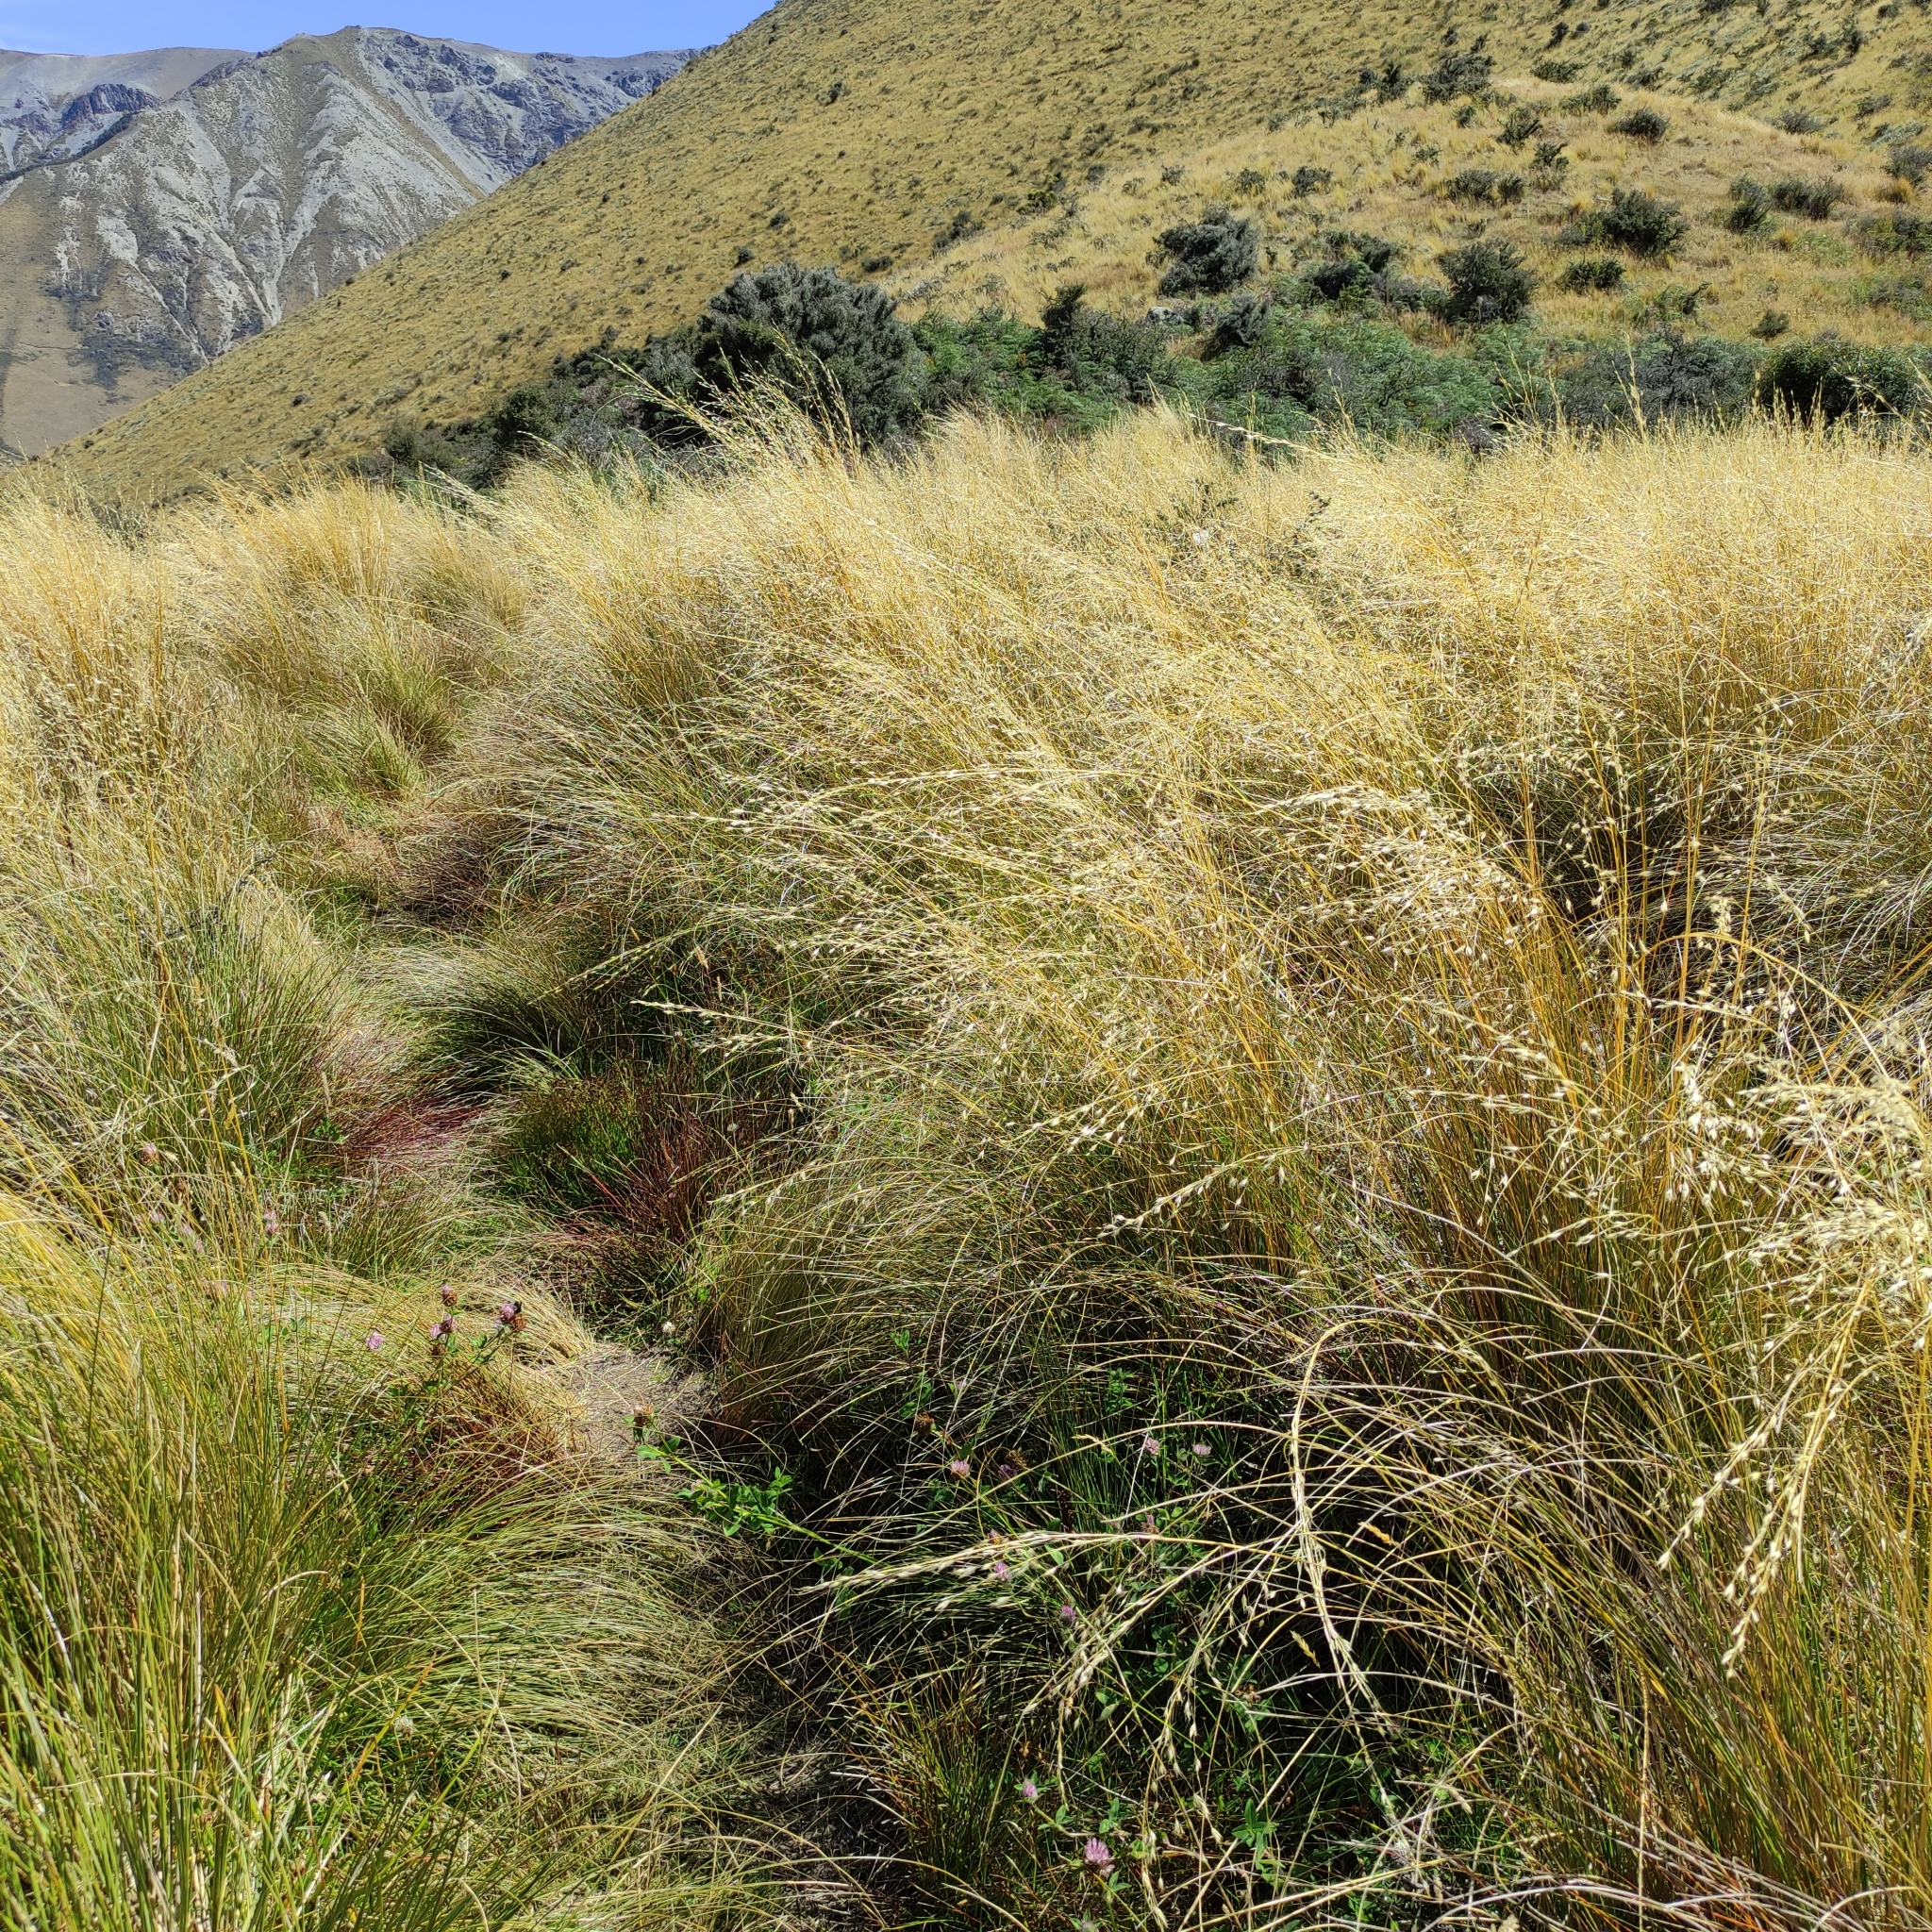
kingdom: Plantae
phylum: Tracheophyta
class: Liliopsida
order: Poales
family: Poaceae
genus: Chionochloa
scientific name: Chionochloa rubra
